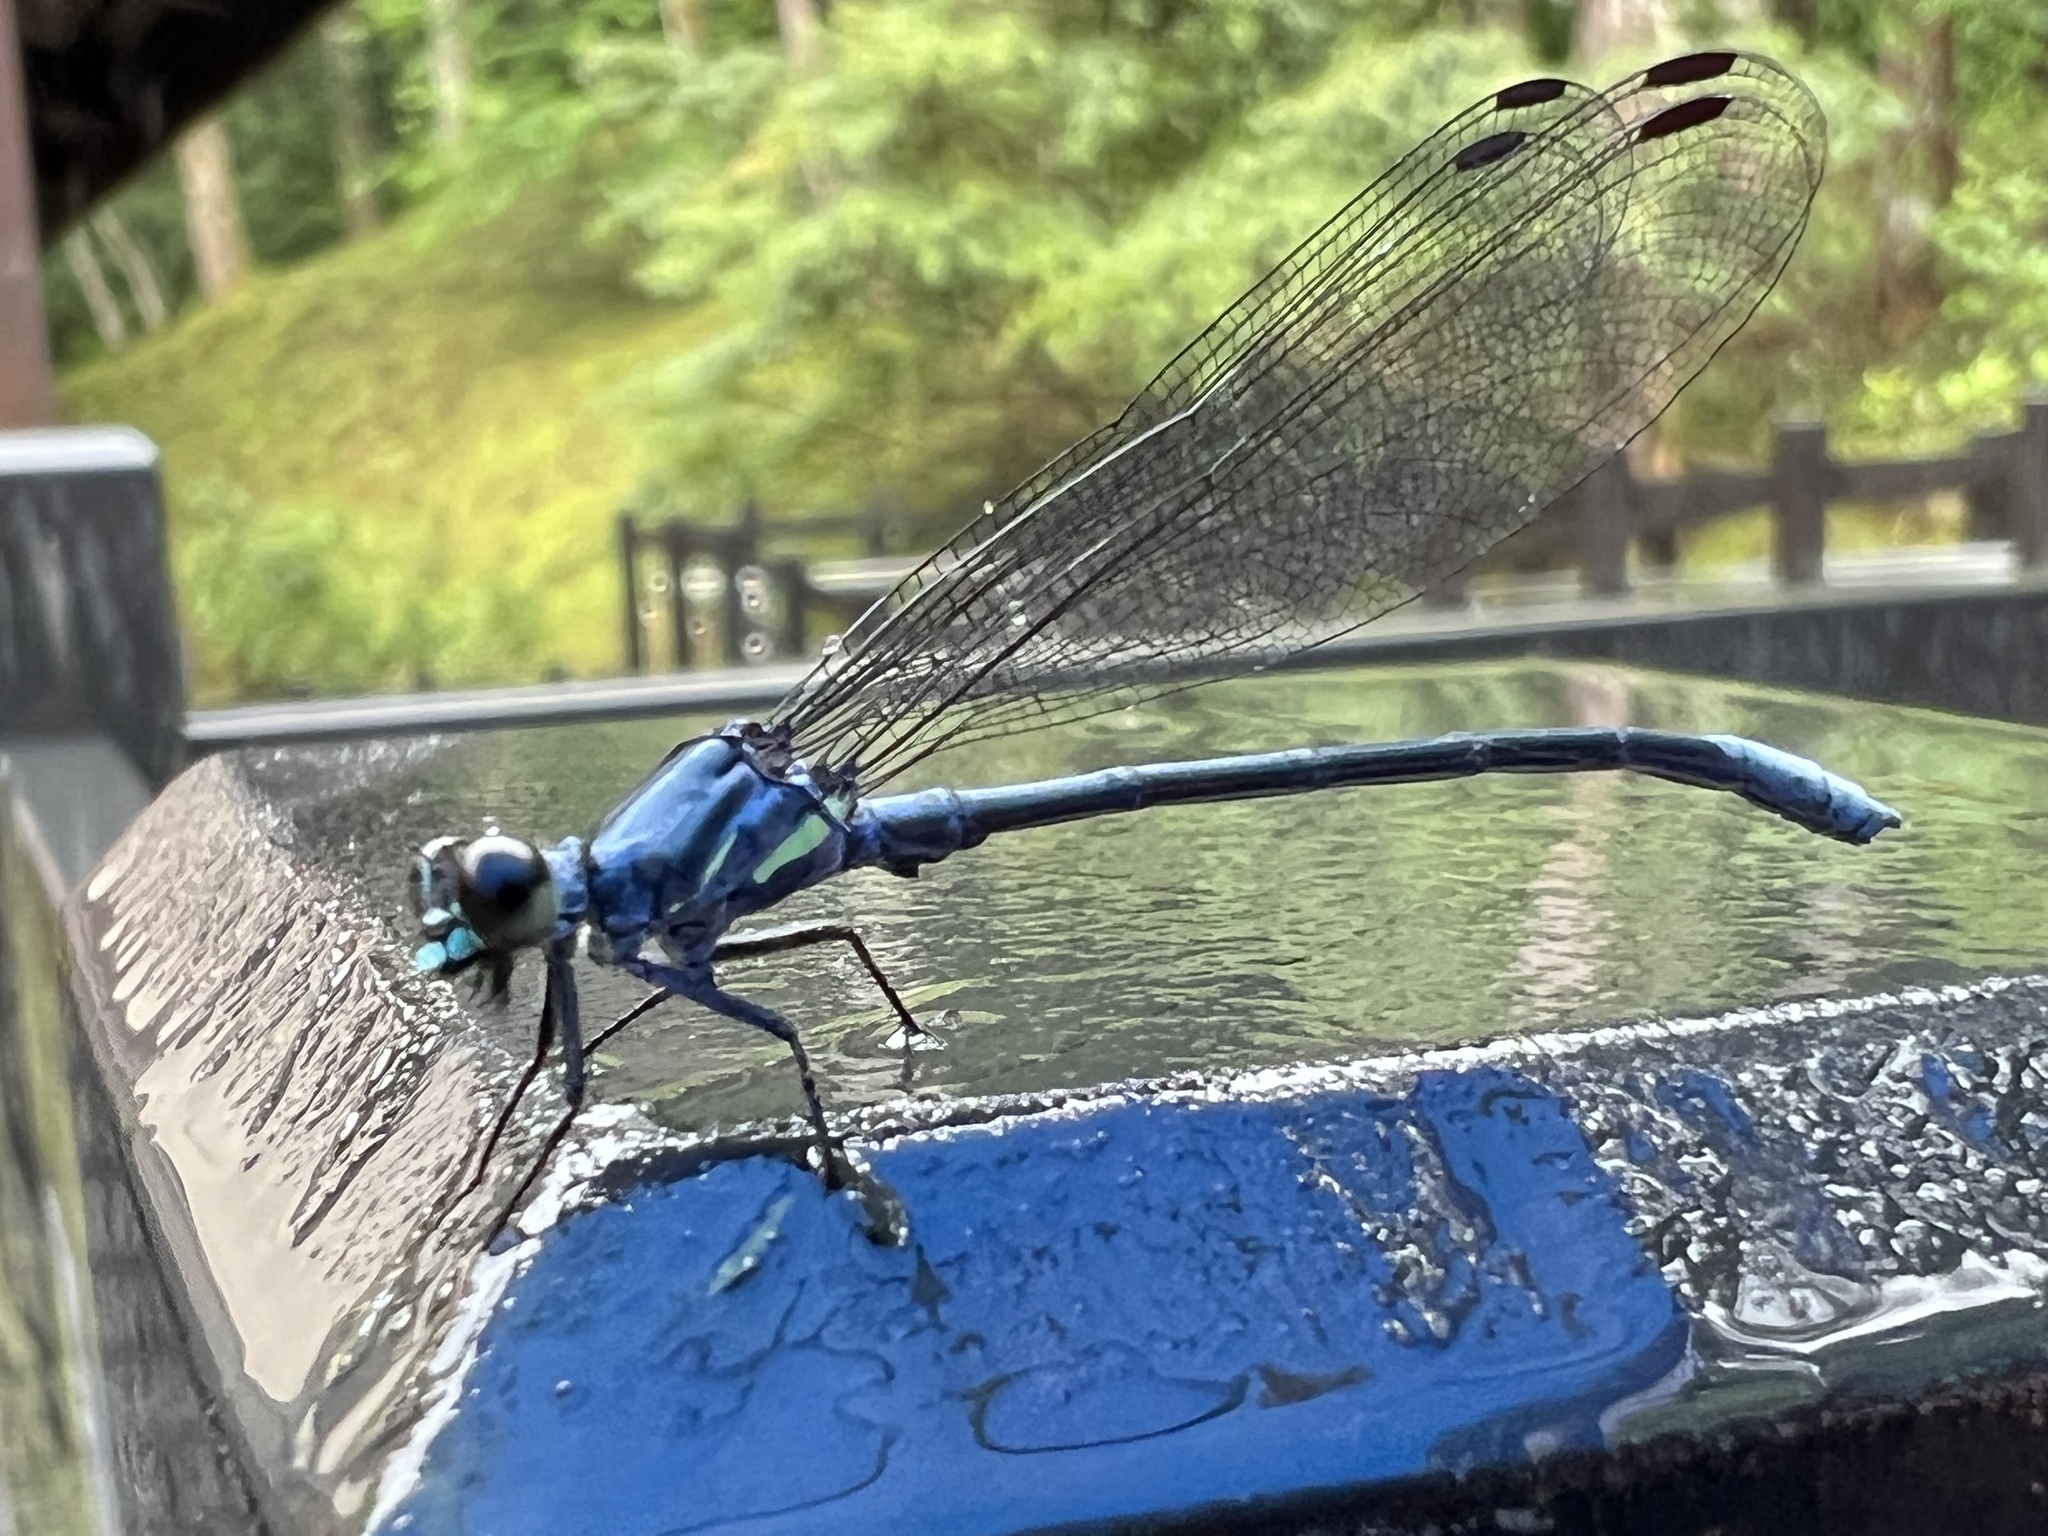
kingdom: Animalia
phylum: Arthropoda
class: Insecta
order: Odonata
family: Euphaeidae
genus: Bayadera
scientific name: Bayadera brevicauda
